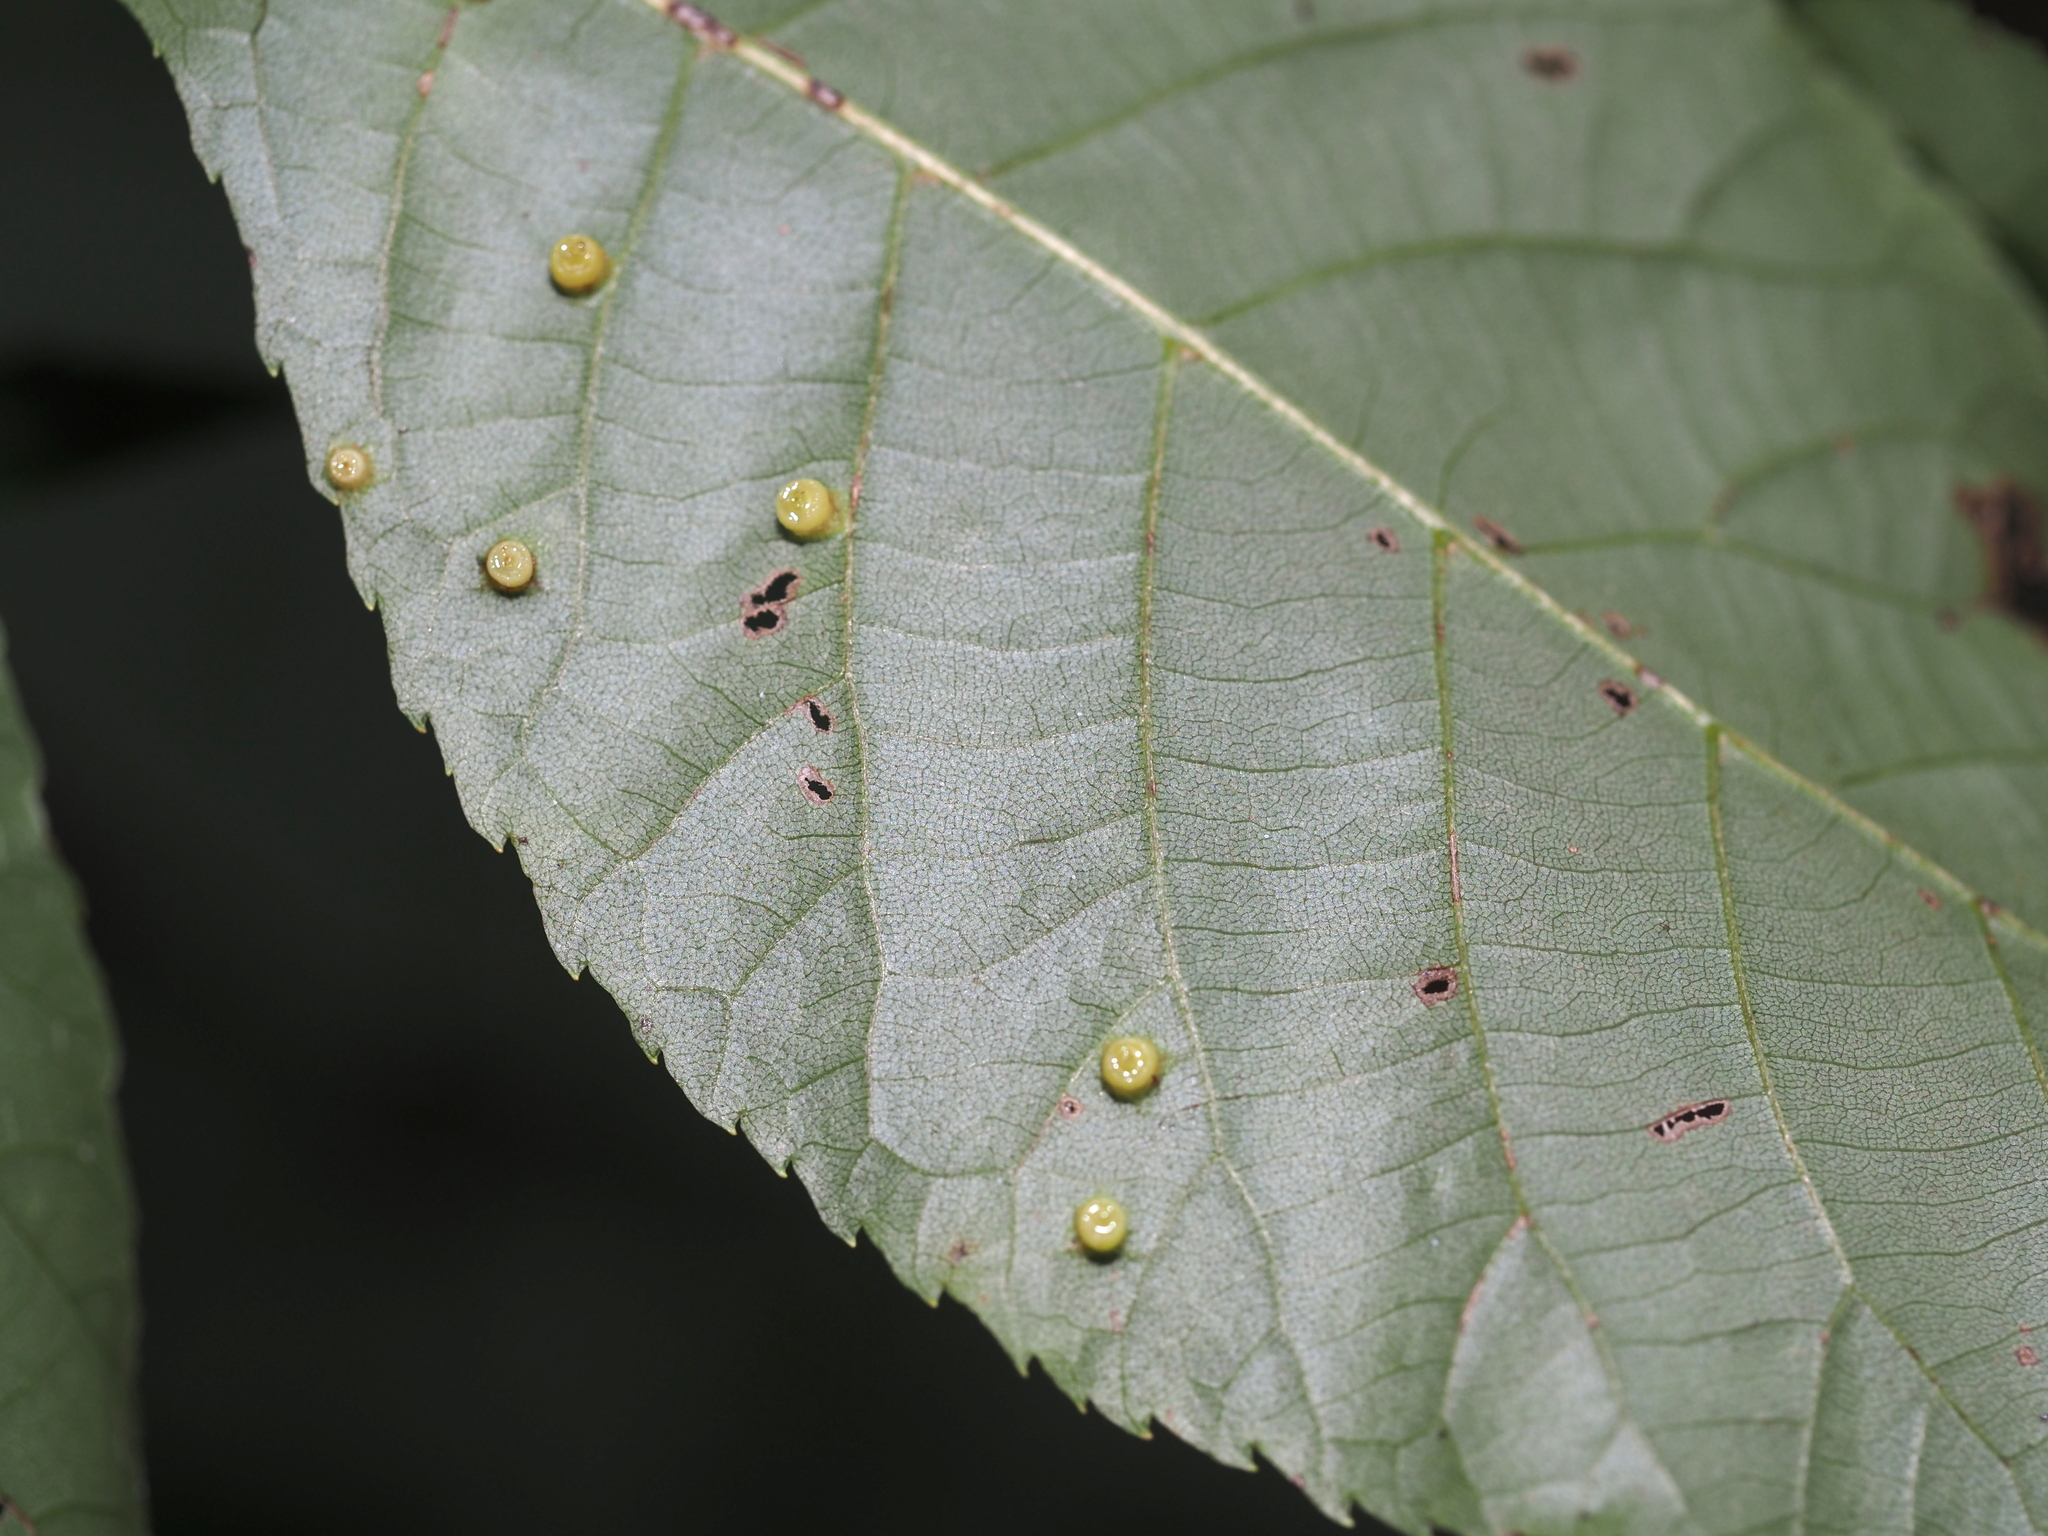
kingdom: Animalia
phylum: Arthropoda
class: Insecta
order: Diptera
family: Cecidomyiidae
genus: Caryomyia
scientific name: Caryomyia melicrustum
